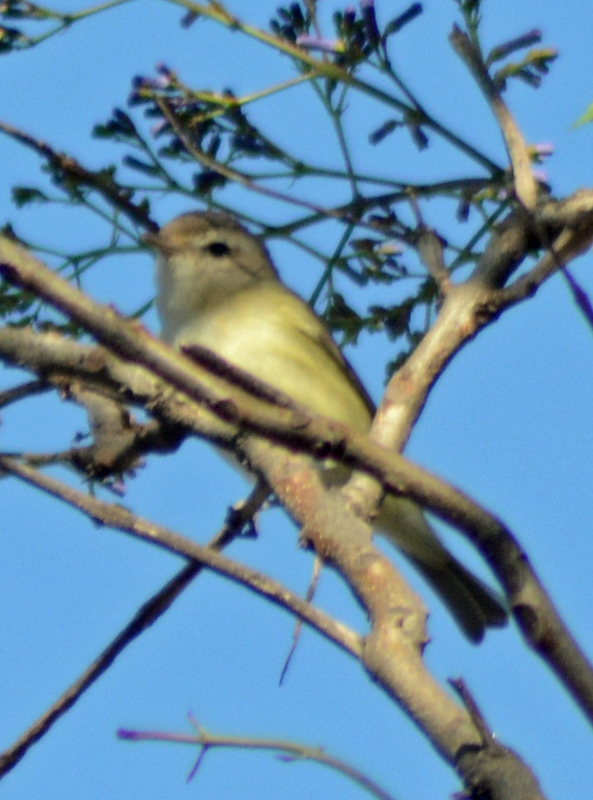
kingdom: Animalia
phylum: Chordata
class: Aves
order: Passeriformes
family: Vireonidae
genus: Vireo
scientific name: Vireo gilvus
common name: Warbling vireo
